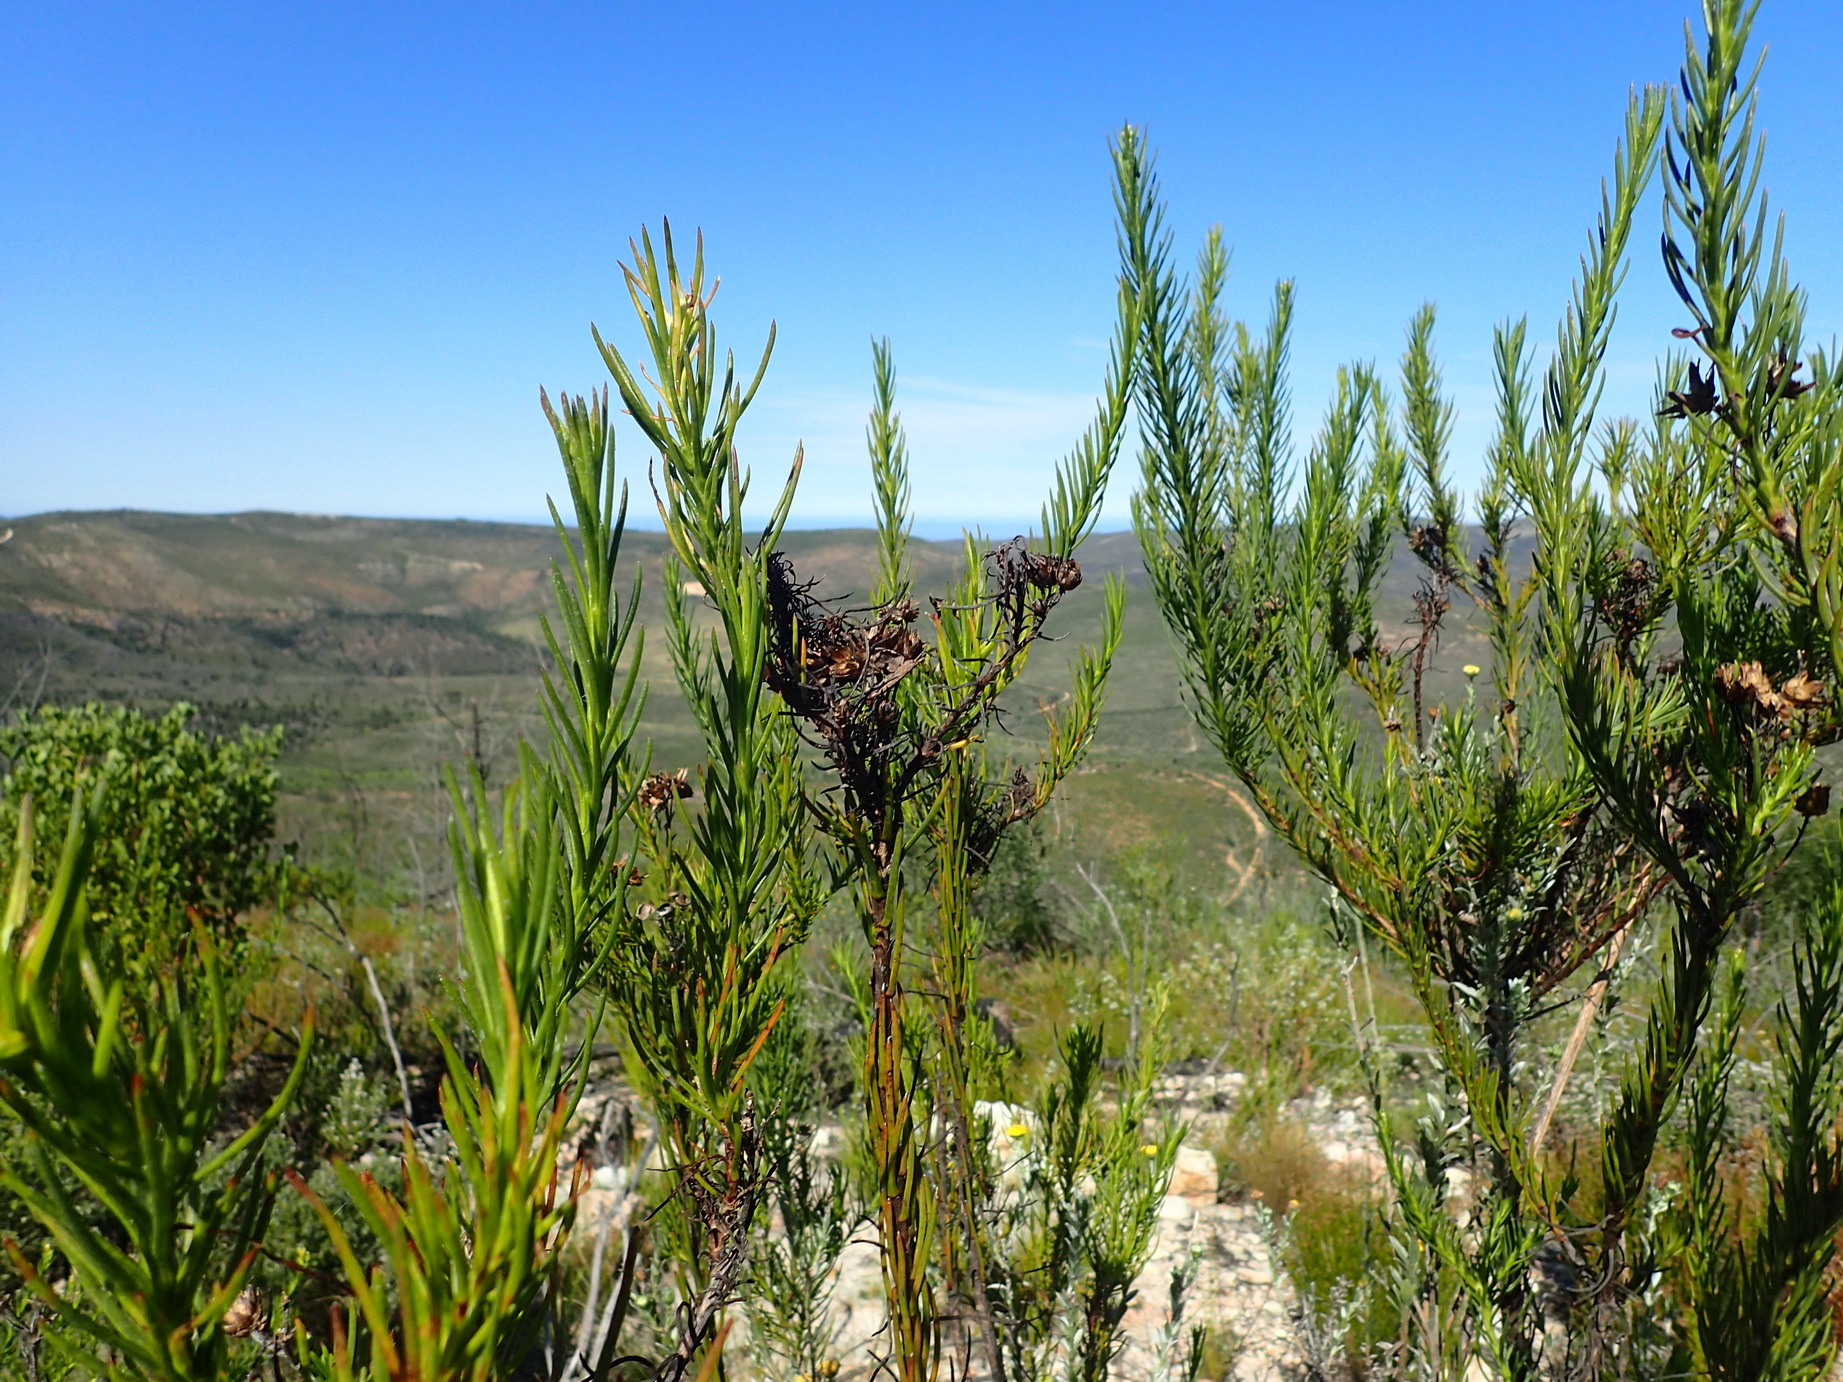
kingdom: Plantae
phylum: Tracheophyta
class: Magnoliopsida
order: Asterales
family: Asteraceae
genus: Athanasia
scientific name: Athanasia linifolia
